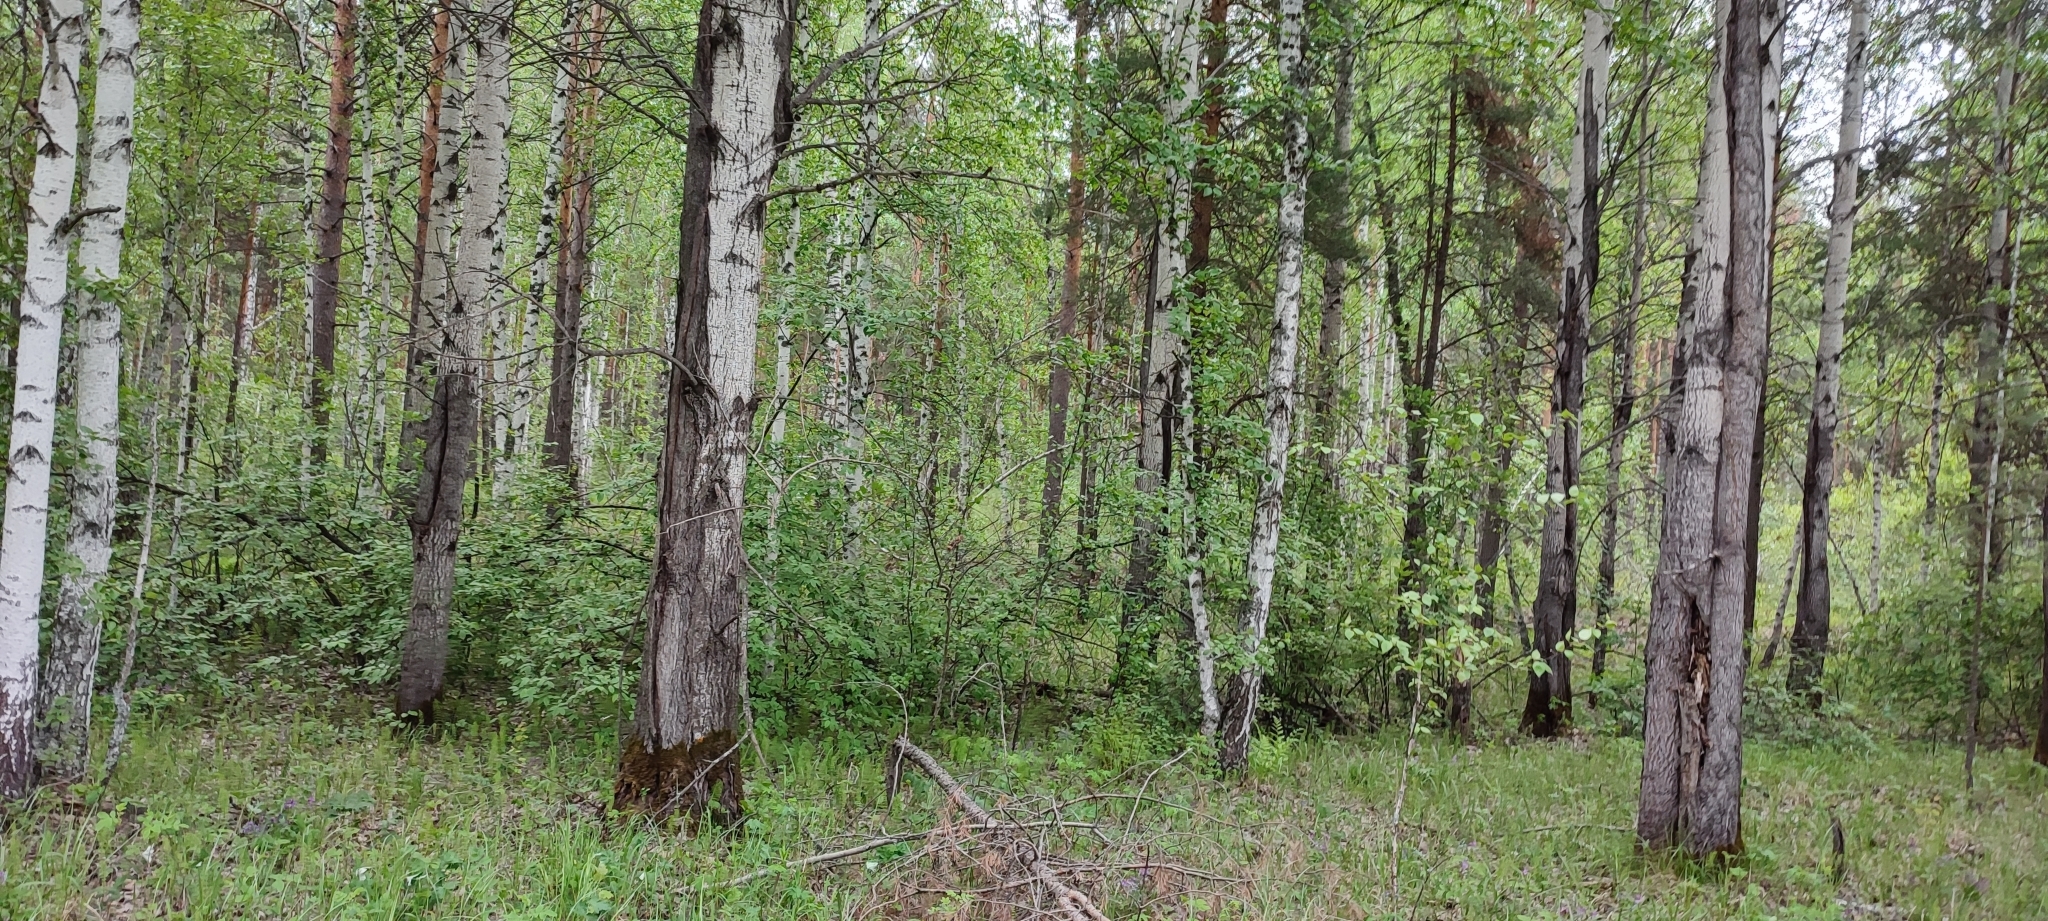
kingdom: Plantae
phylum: Tracheophyta
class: Magnoliopsida
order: Fagales
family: Betulaceae
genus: Betula
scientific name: Betula pendula
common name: Silver birch
